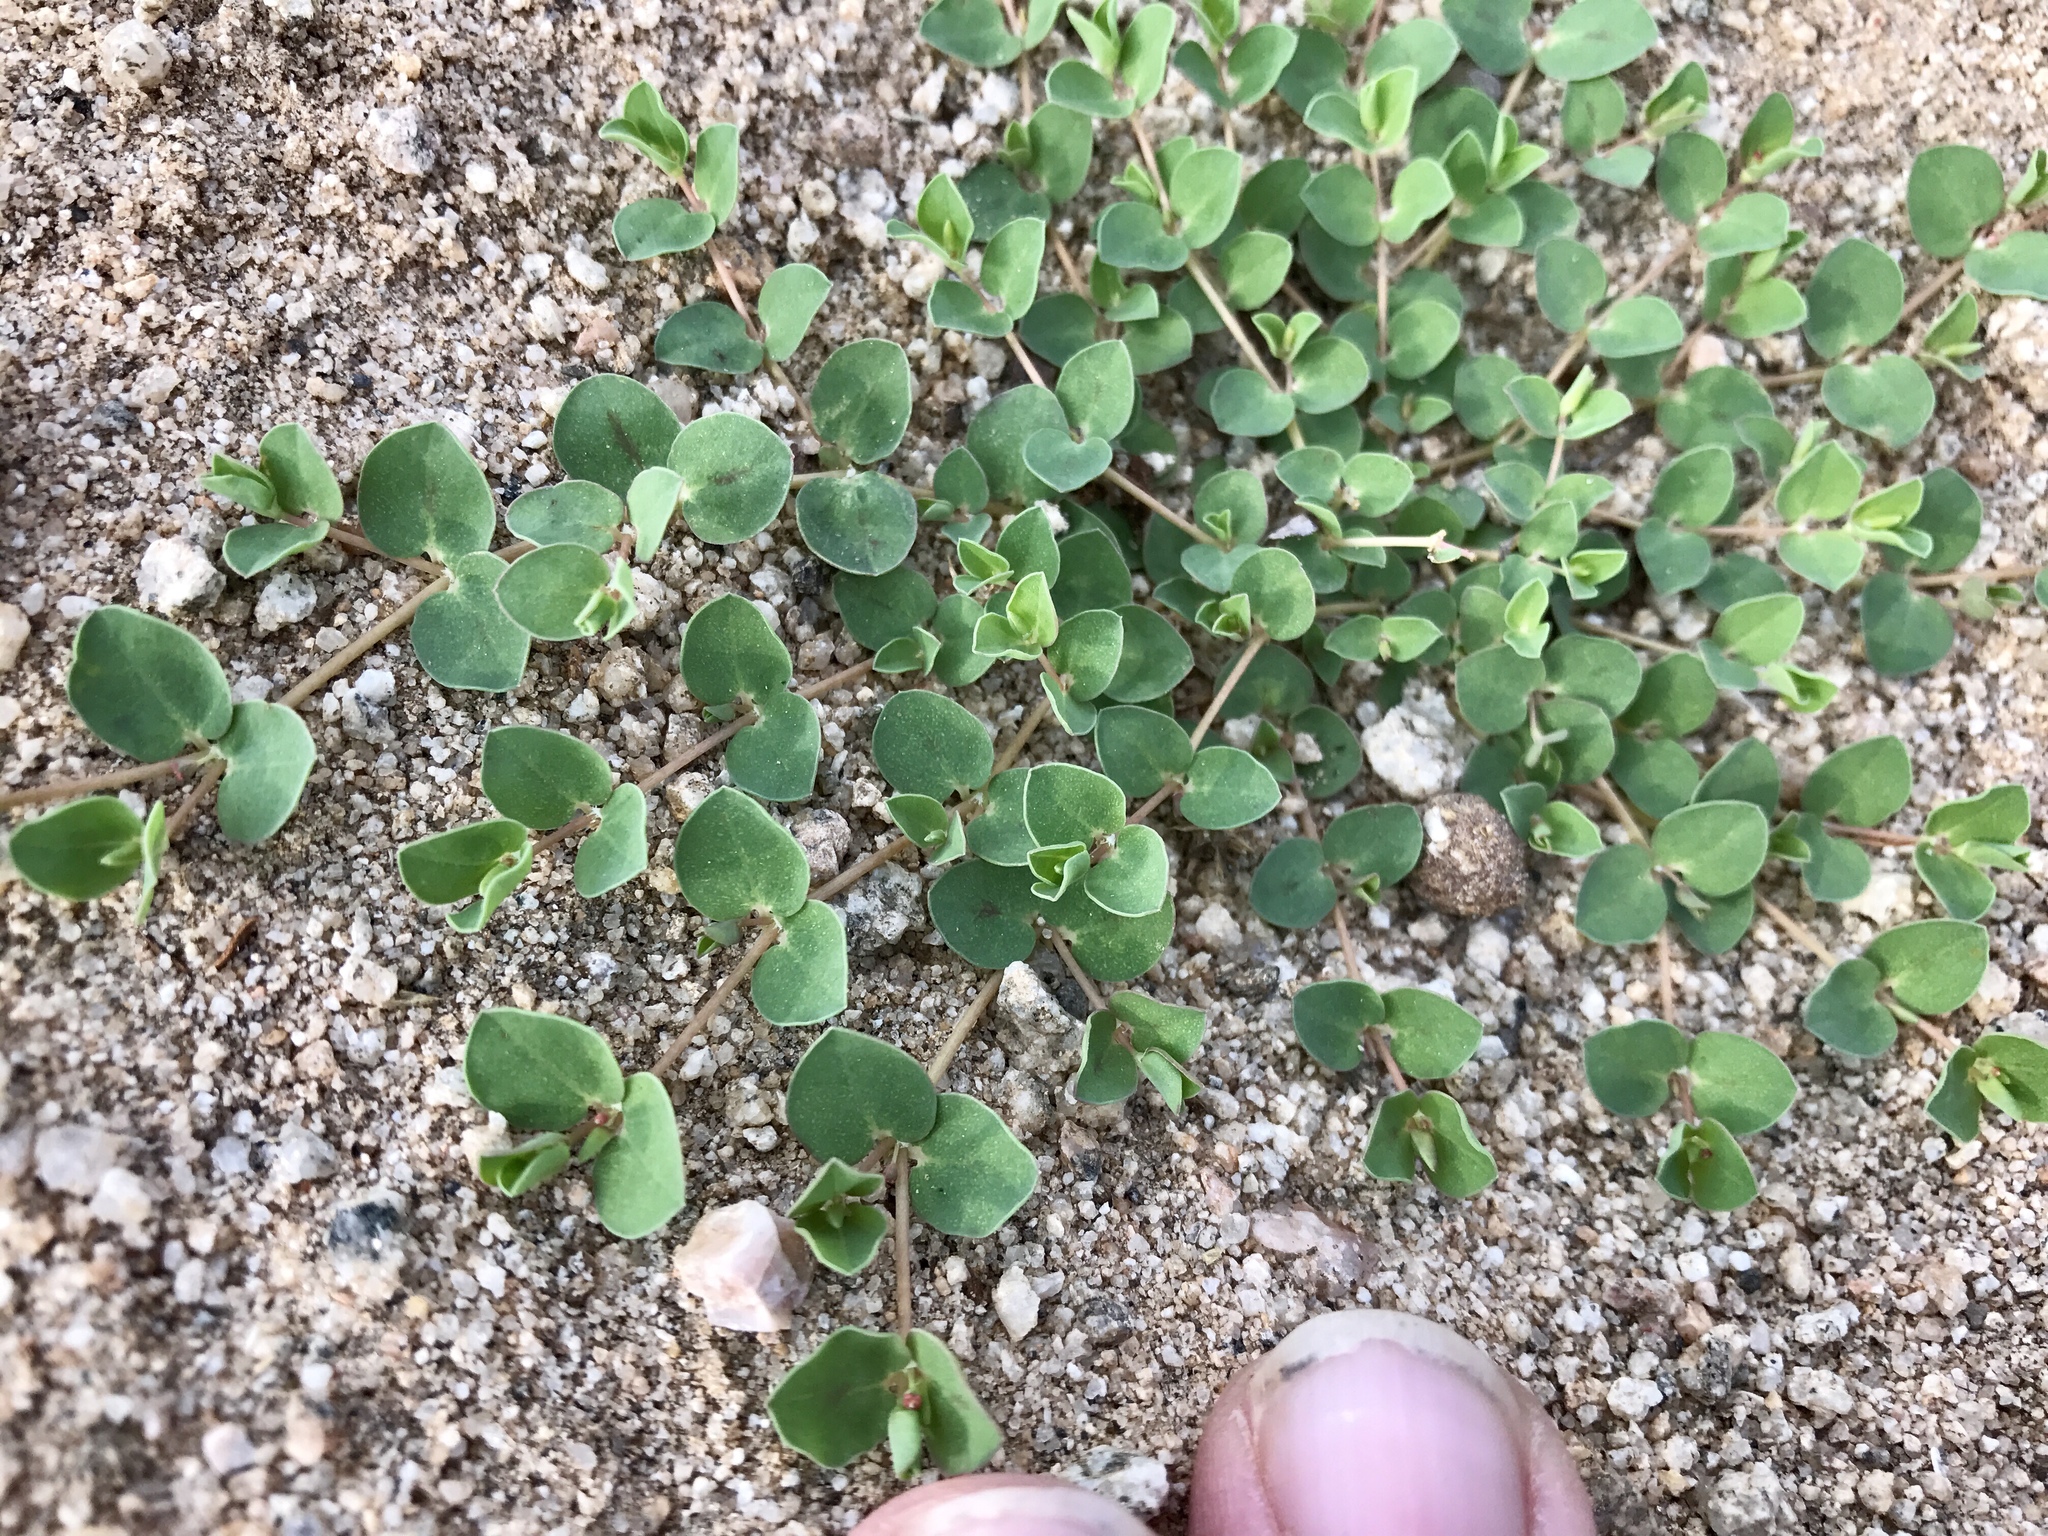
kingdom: Plantae
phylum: Tracheophyta
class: Magnoliopsida
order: Malpighiales
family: Euphorbiaceae
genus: Euphorbia
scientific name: Euphorbia albomarginata
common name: Whitemargin sandmat
